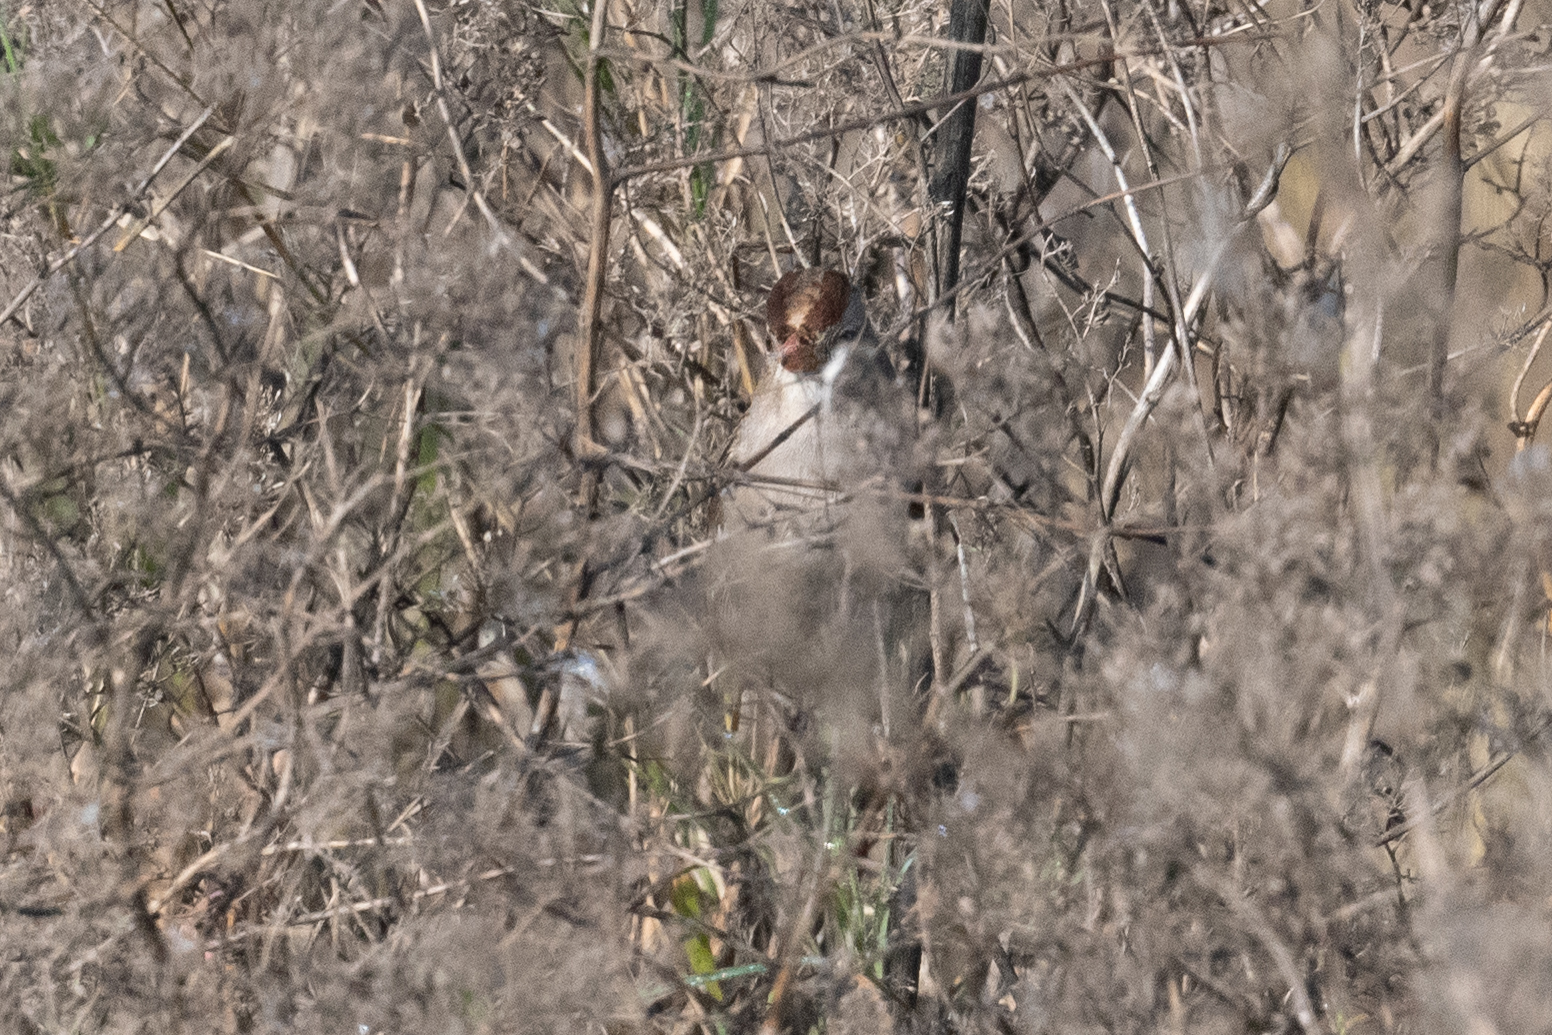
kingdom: Animalia
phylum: Chordata
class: Aves
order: Passeriformes
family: Passerellidae
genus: Zonotrichia
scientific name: Zonotrichia leucophrys
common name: White-crowned sparrow
